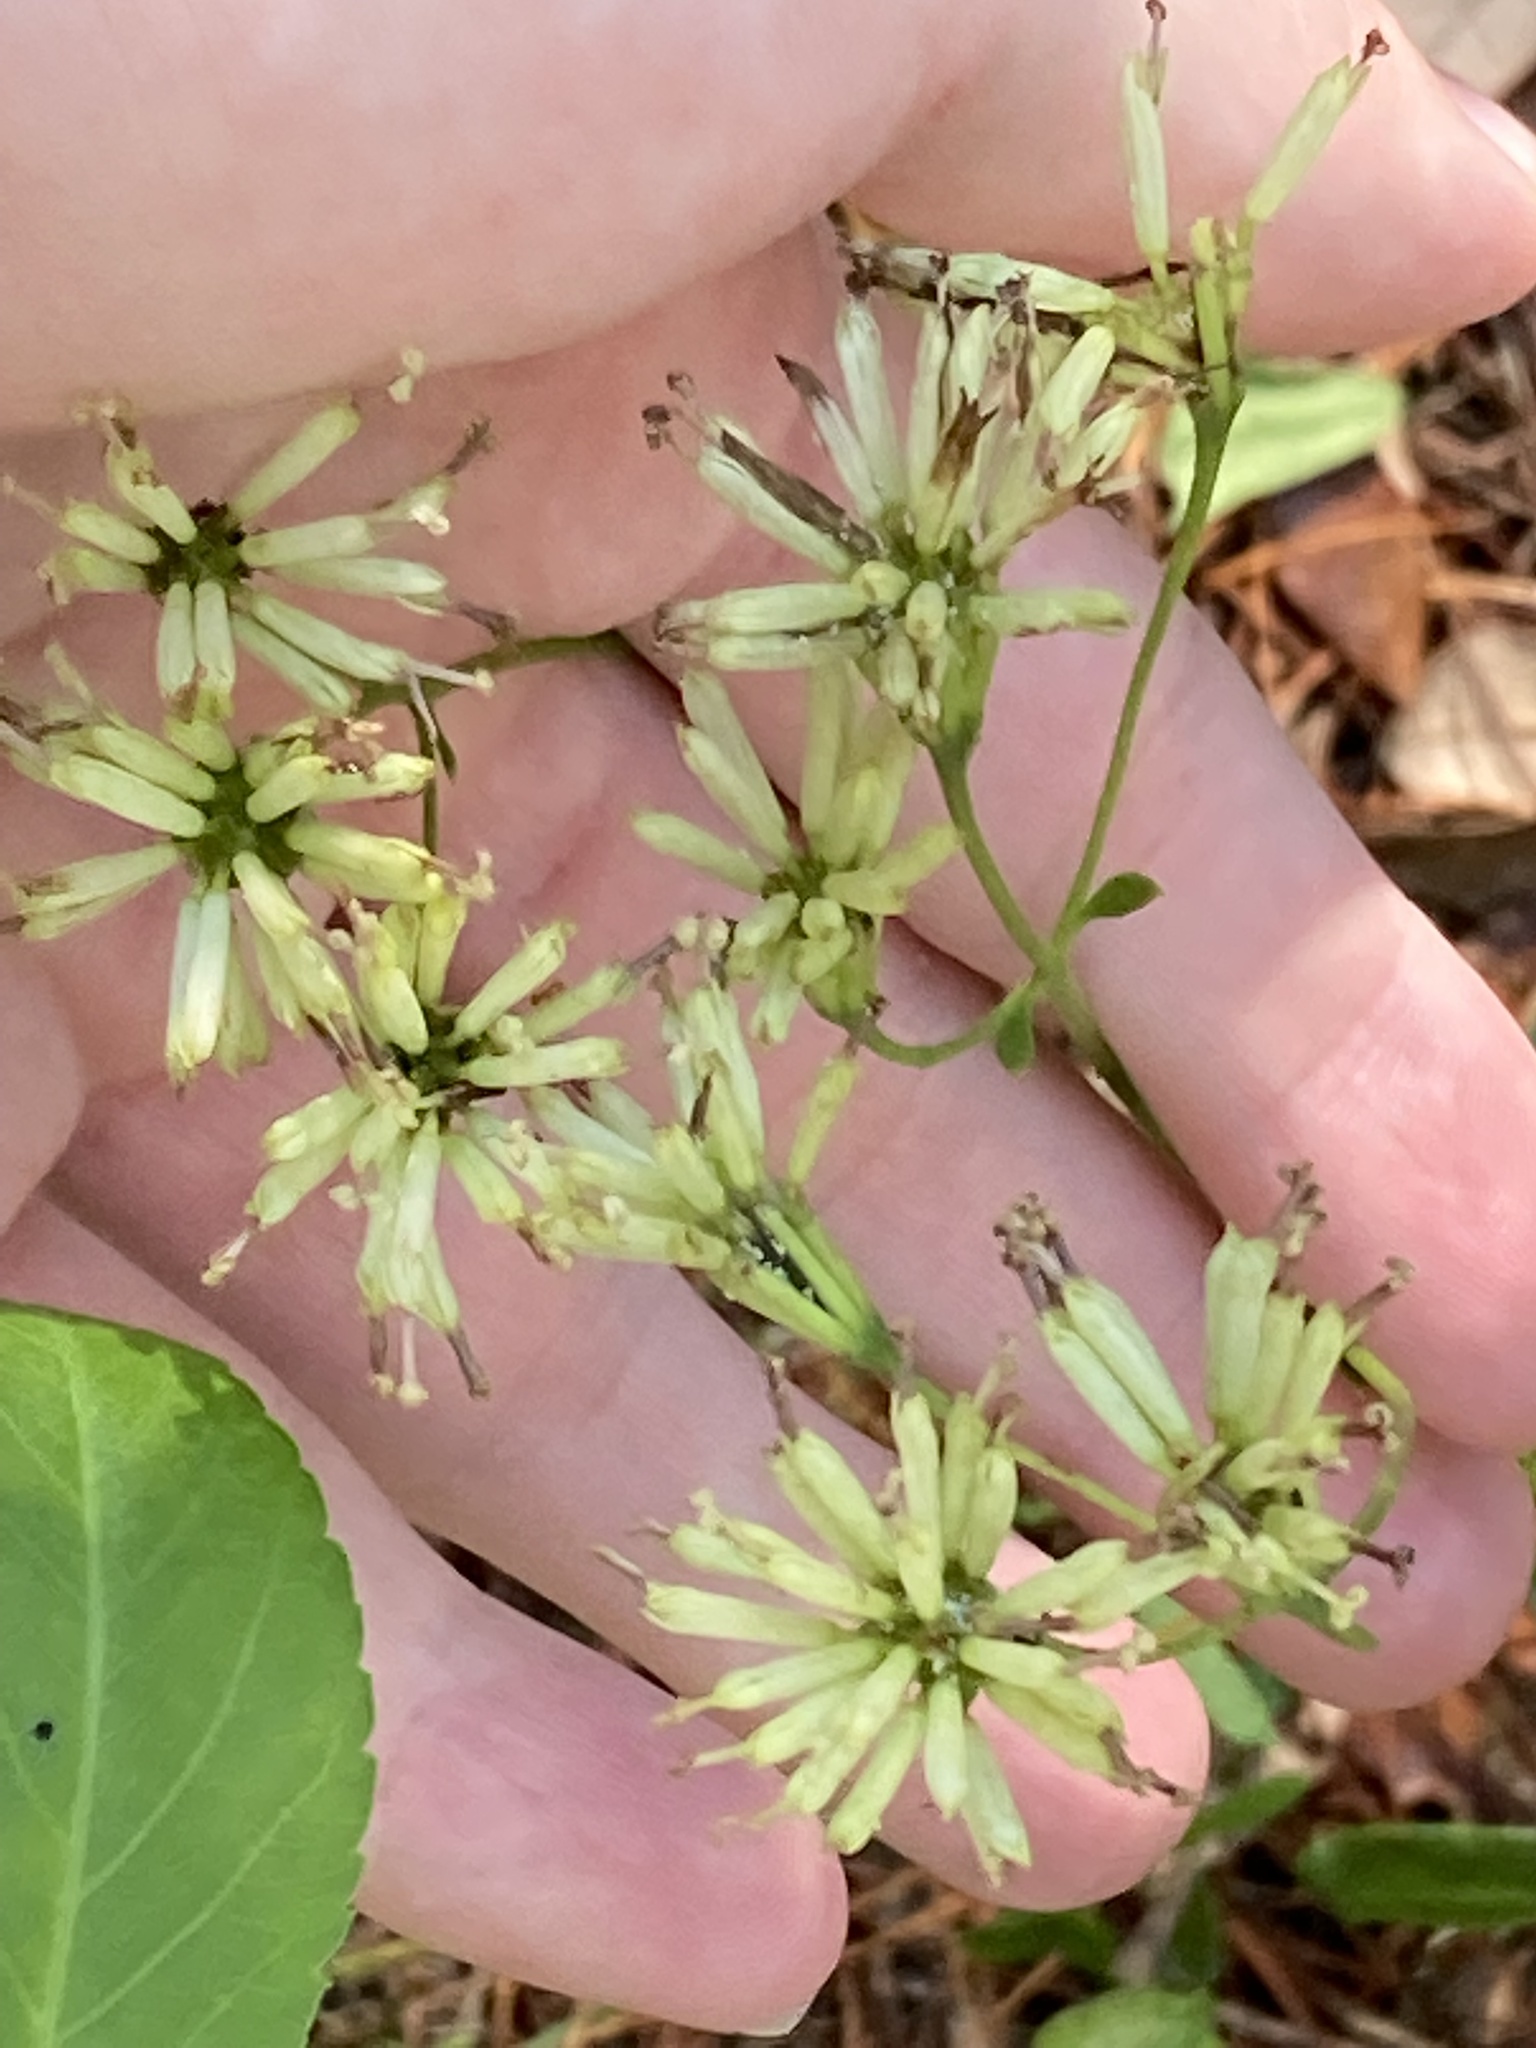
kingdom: Plantae
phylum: Tracheophyta
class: Magnoliopsida
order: Asterales
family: Asteraceae
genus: Palafoxia
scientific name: Palafoxia feayi
